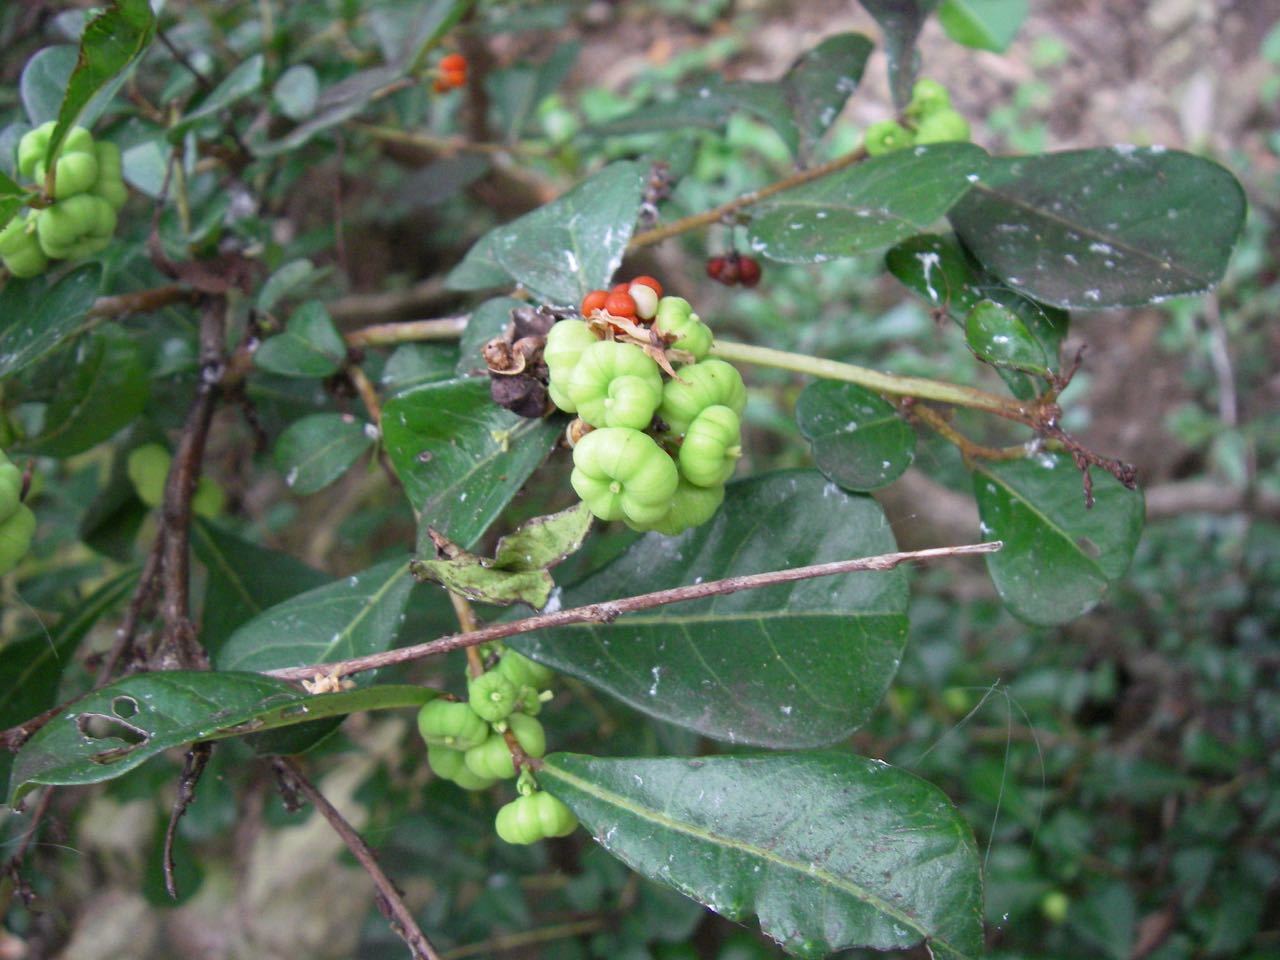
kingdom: Plantae
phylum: Tracheophyta
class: Magnoliopsida
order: Malpighiales
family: Phyllanthaceae
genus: Glochidion
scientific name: Glochidion obovatum
